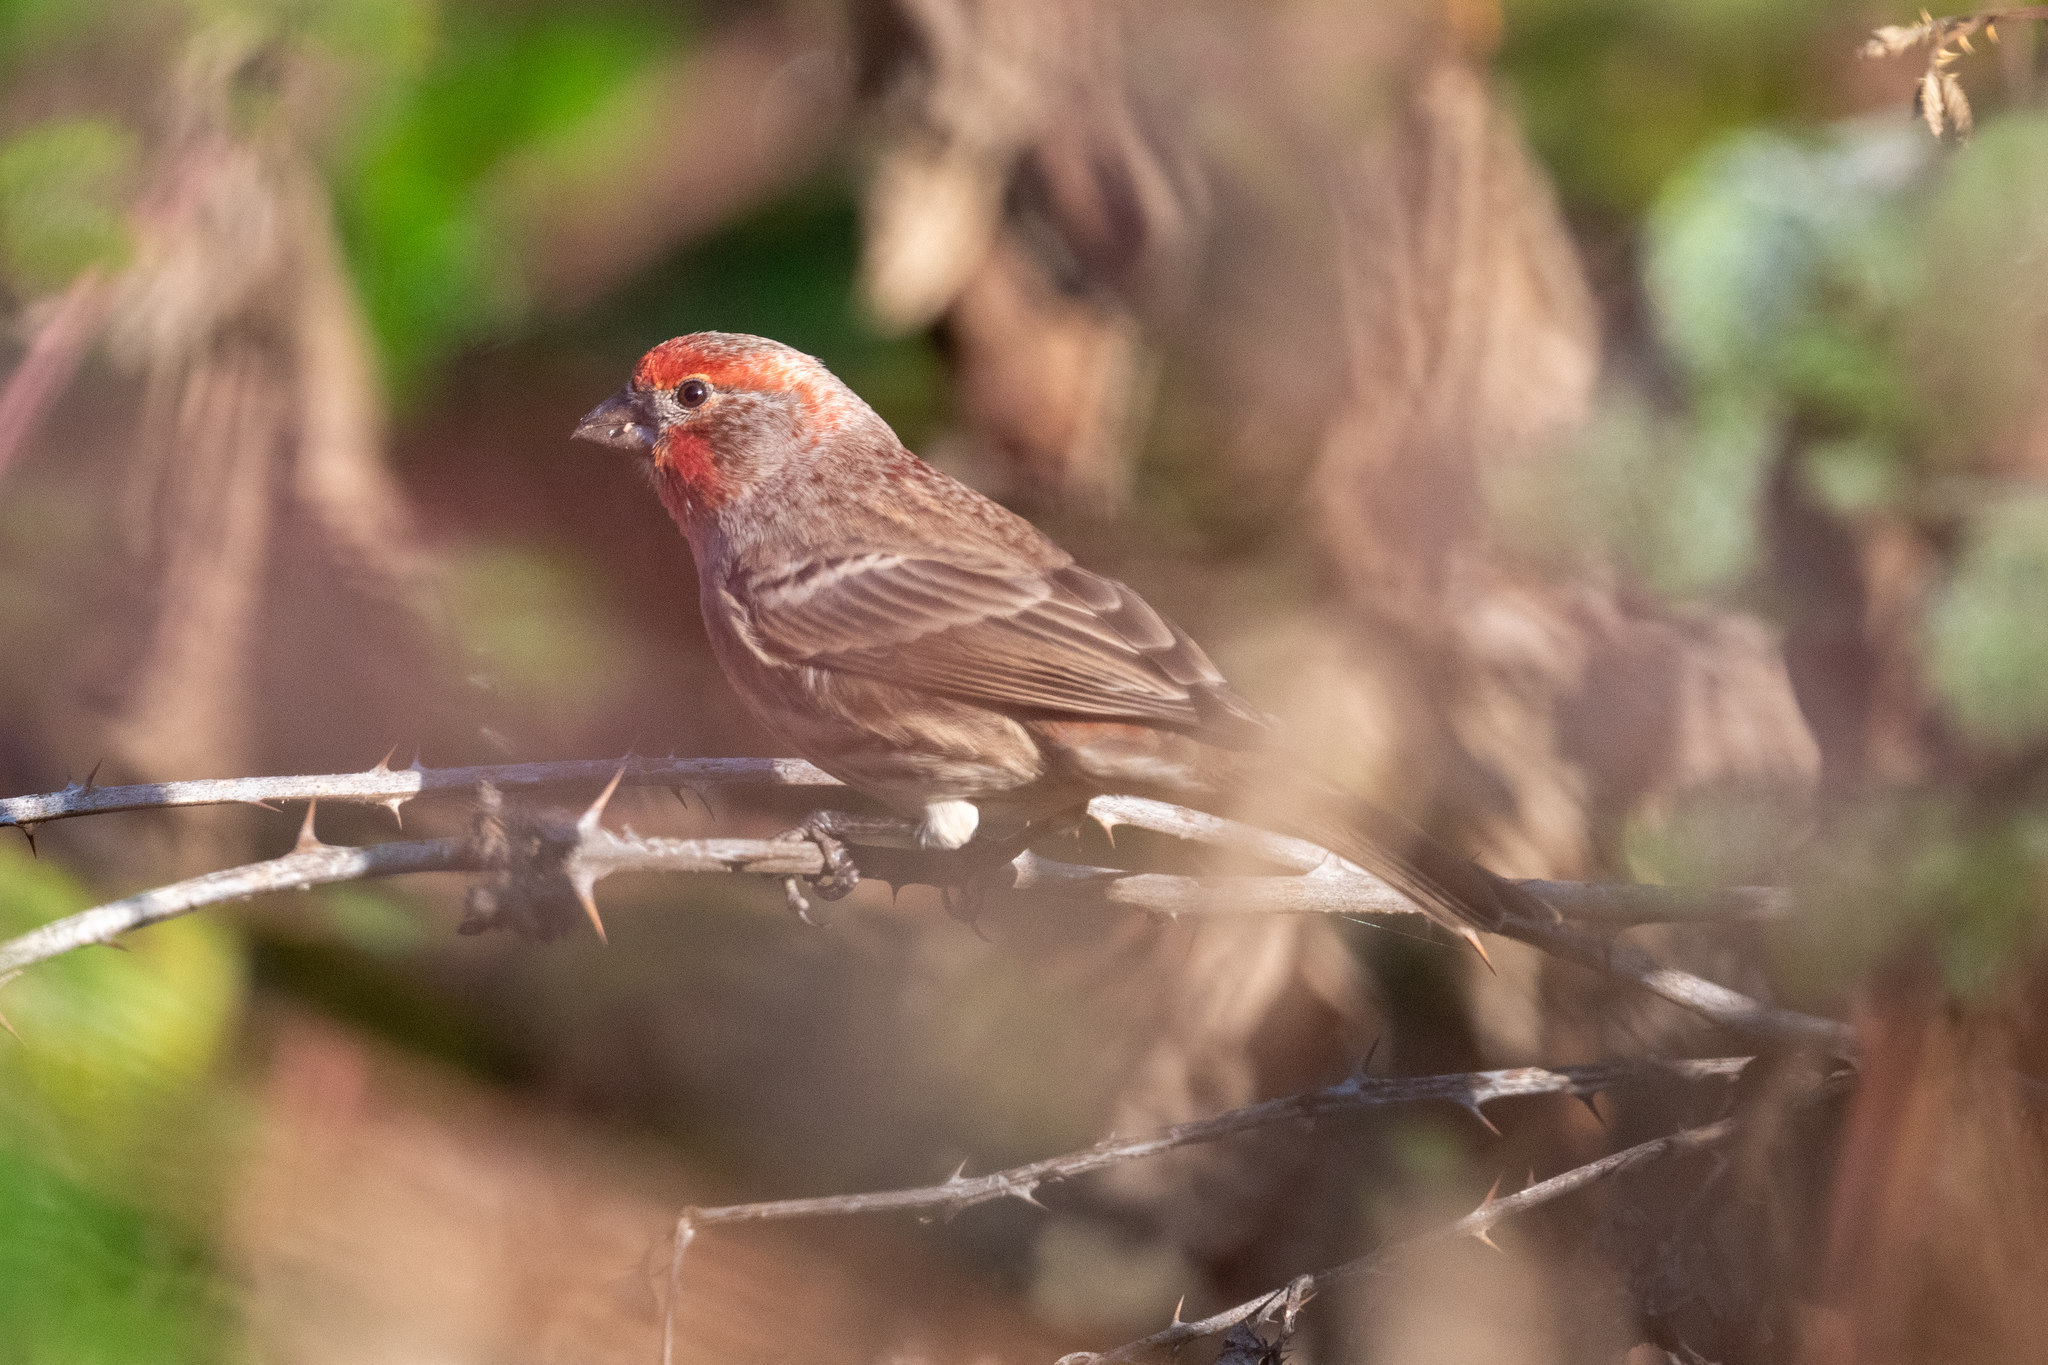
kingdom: Animalia
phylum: Chordata
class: Aves
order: Passeriformes
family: Fringillidae
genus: Haemorhous
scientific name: Haemorhous mexicanus
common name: House finch
